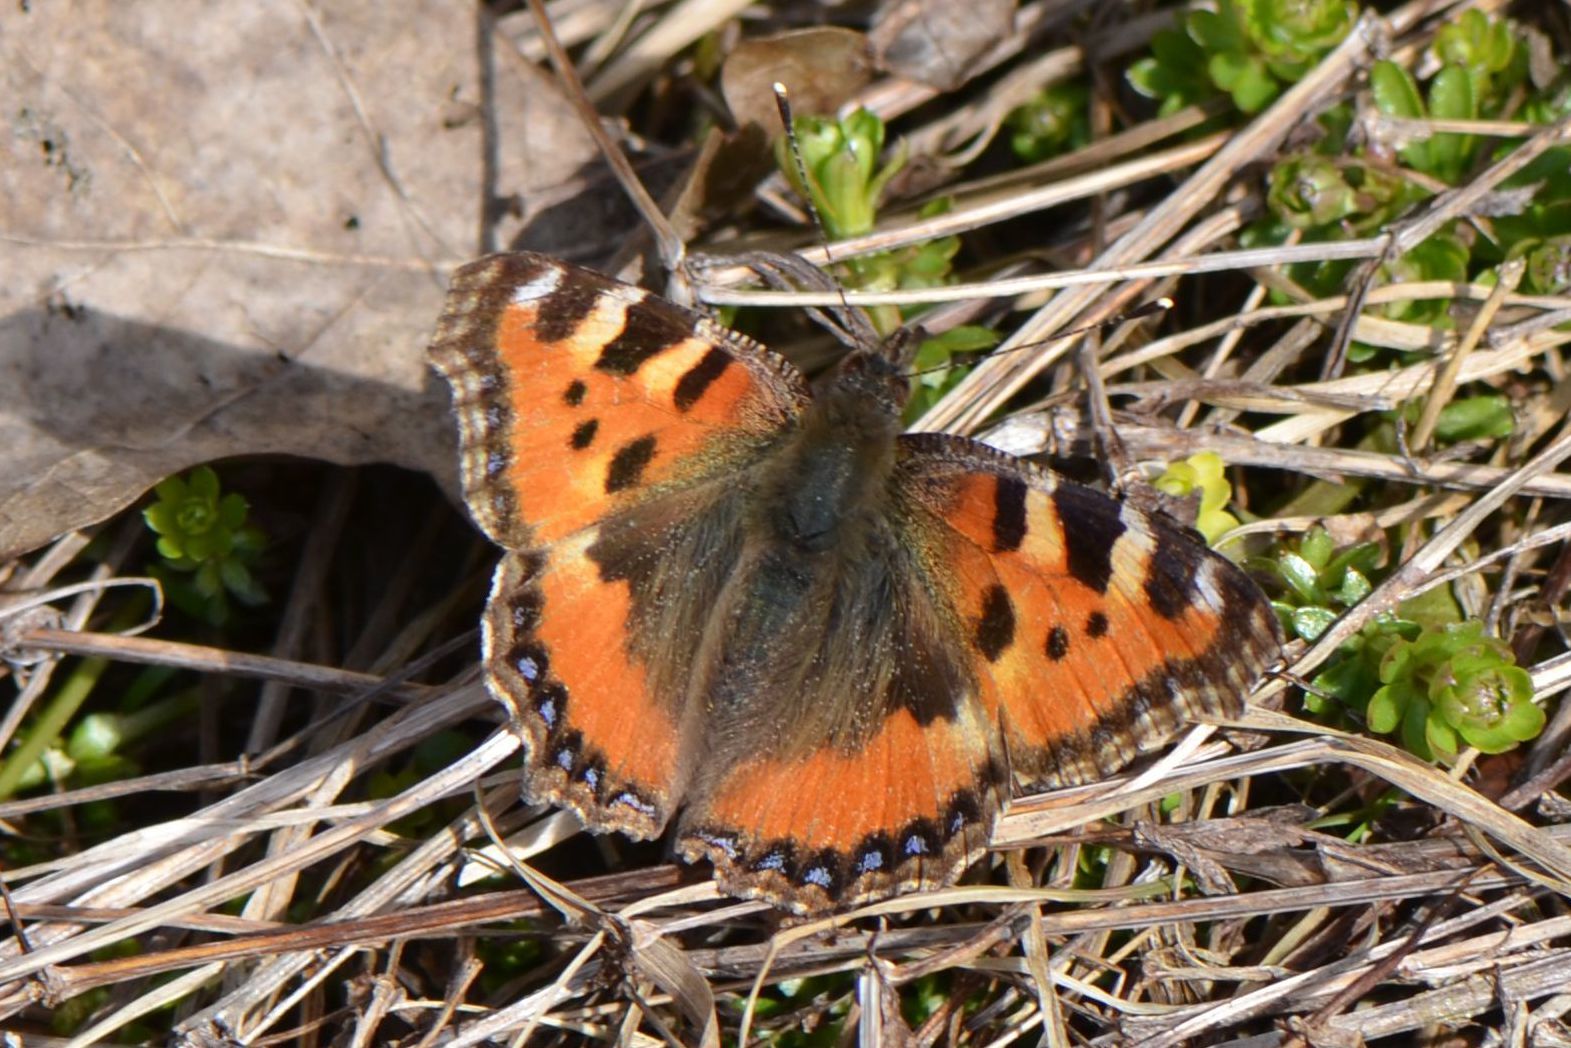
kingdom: Animalia
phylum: Arthropoda
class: Insecta
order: Lepidoptera
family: Nymphalidae
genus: Aglais
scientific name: Aglais urticae
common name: Small tortoiseshell
